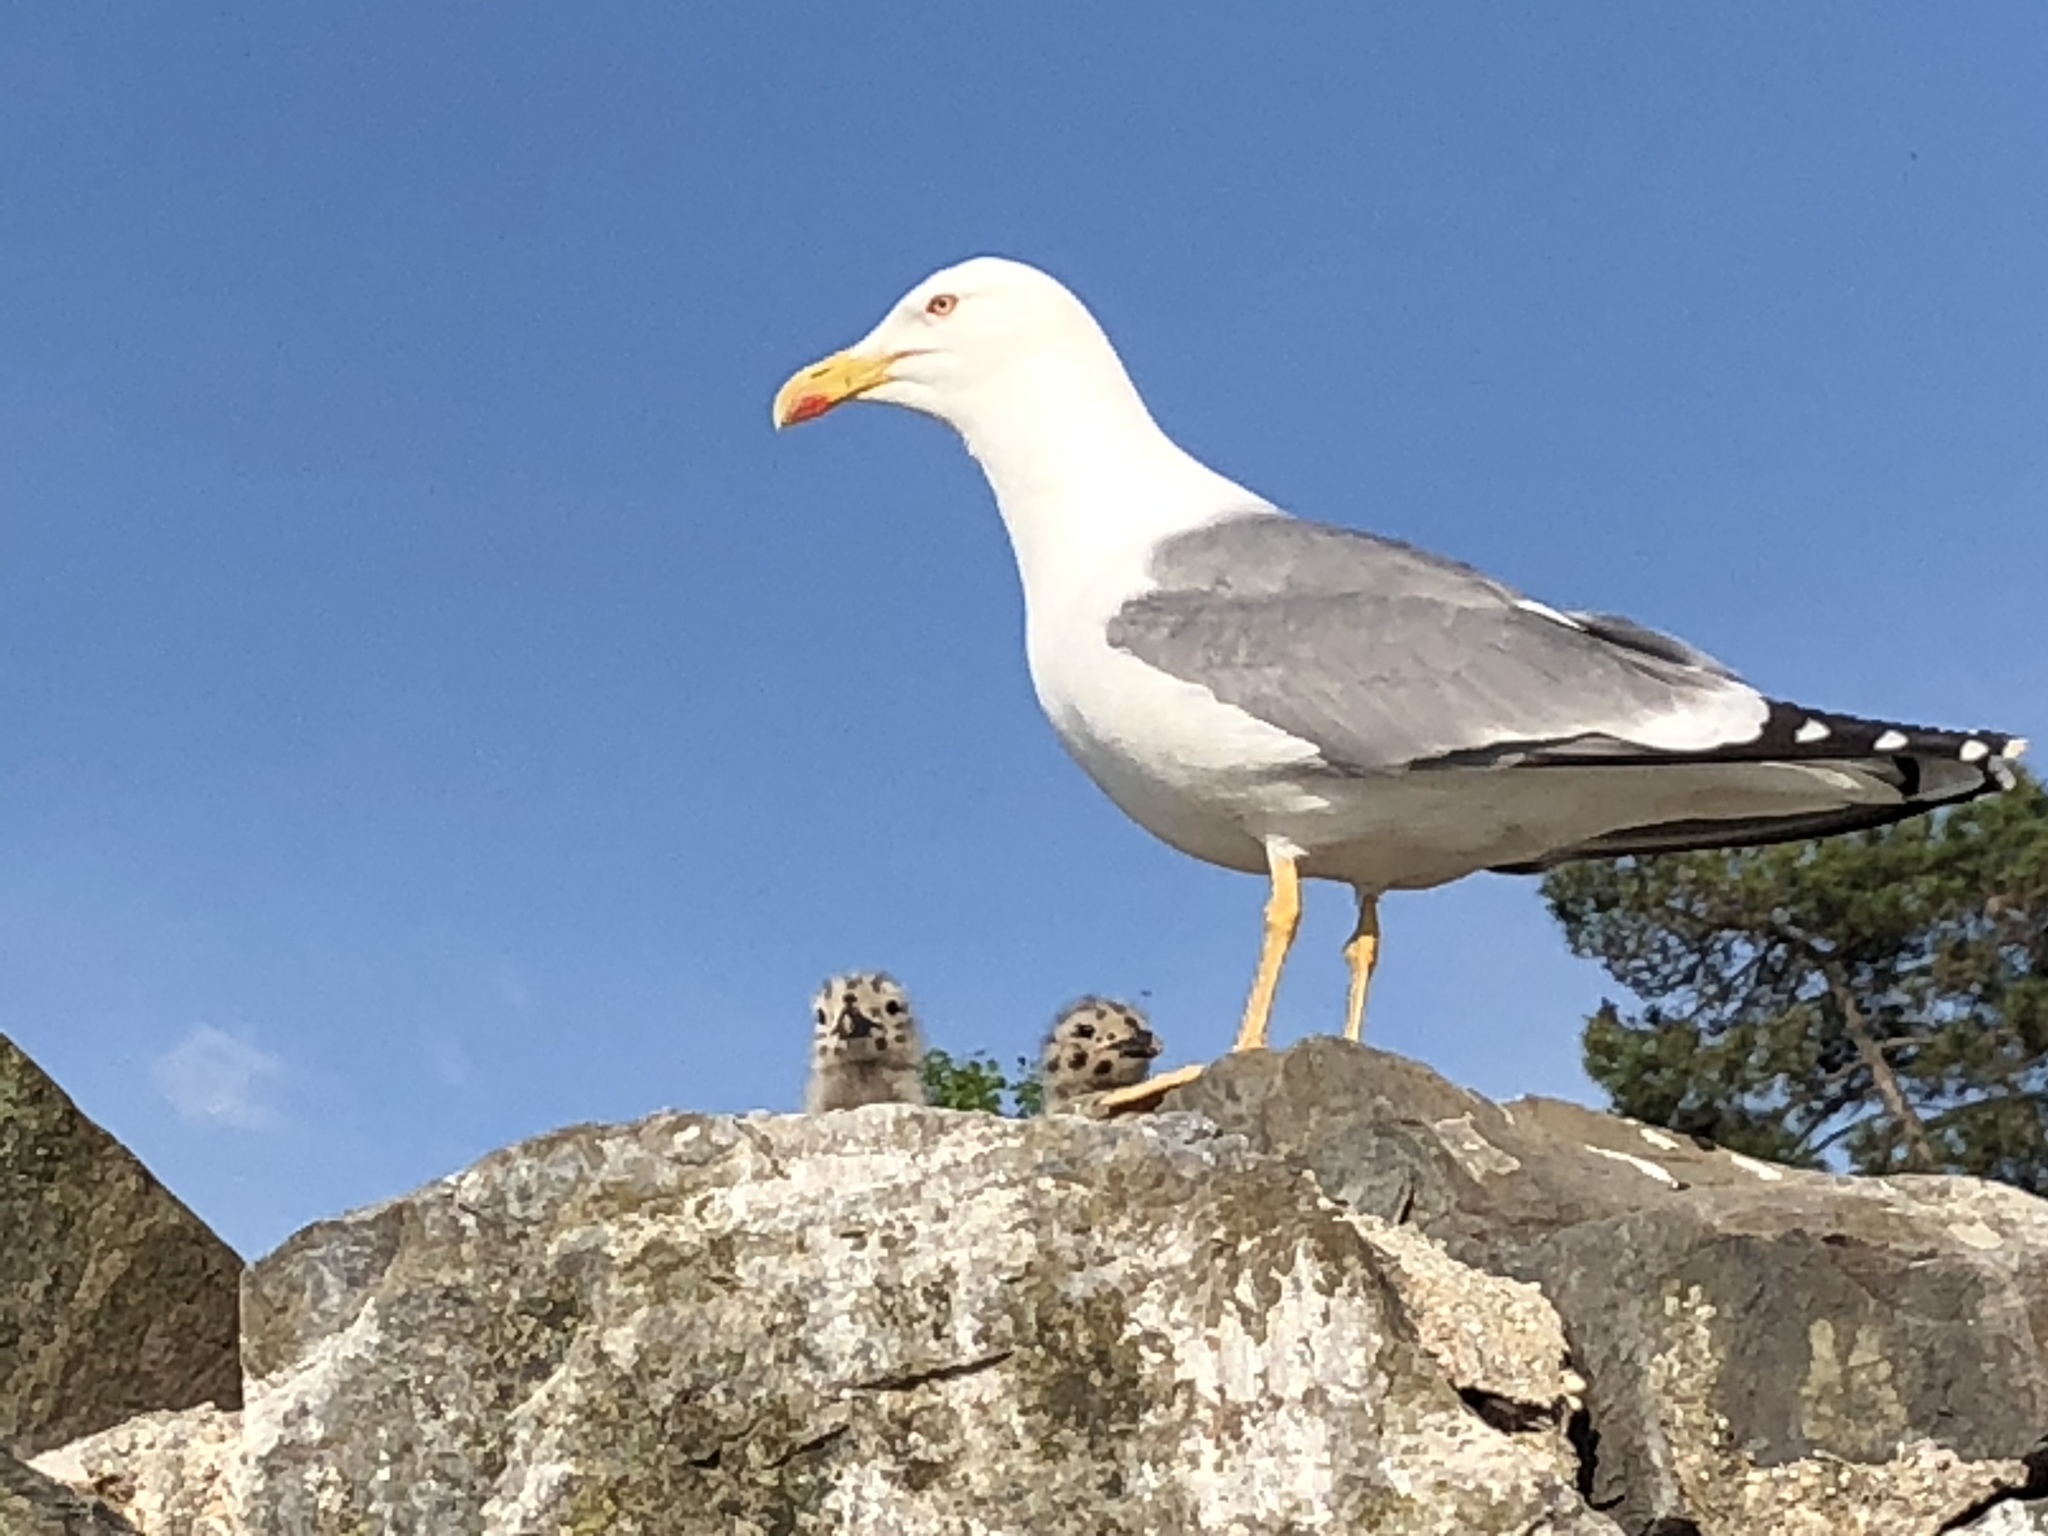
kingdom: Animalia
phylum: Chordata
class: Aves
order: Charadriiformes
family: Laridae
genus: Larus
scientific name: Larus michahellis
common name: Yellow-legged gull
